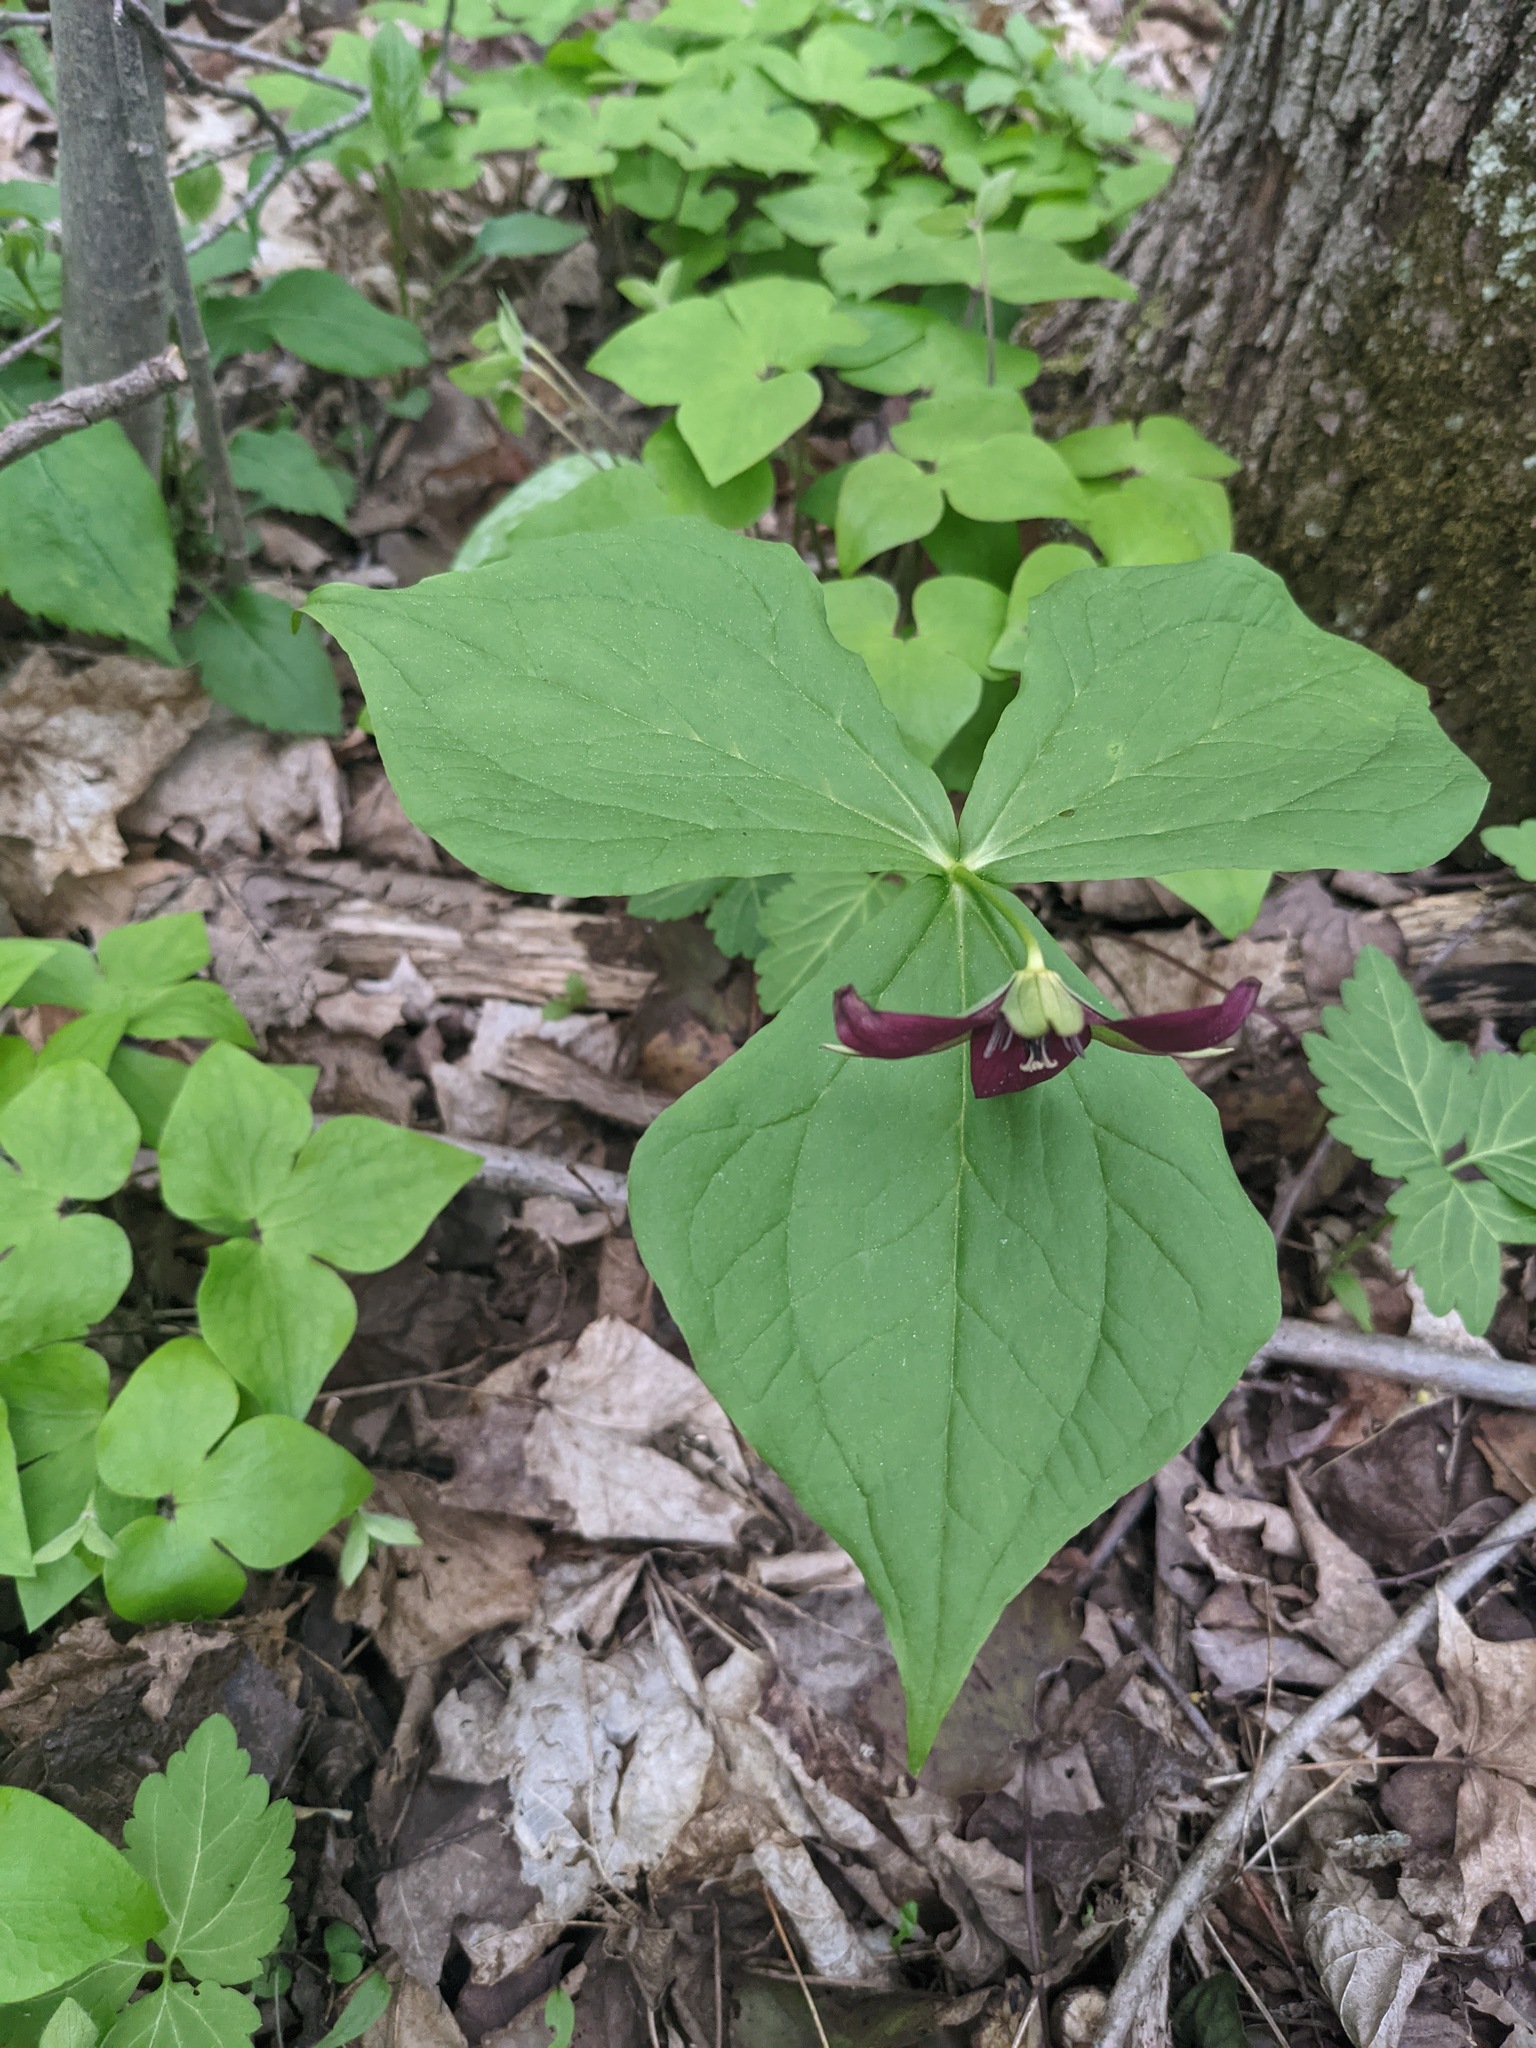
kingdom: Plantae
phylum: Tracheophyta
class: Liliopsida
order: Liliales
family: Melanthiaceae
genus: Trillium
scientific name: Trillium erectum
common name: Purple trillium
